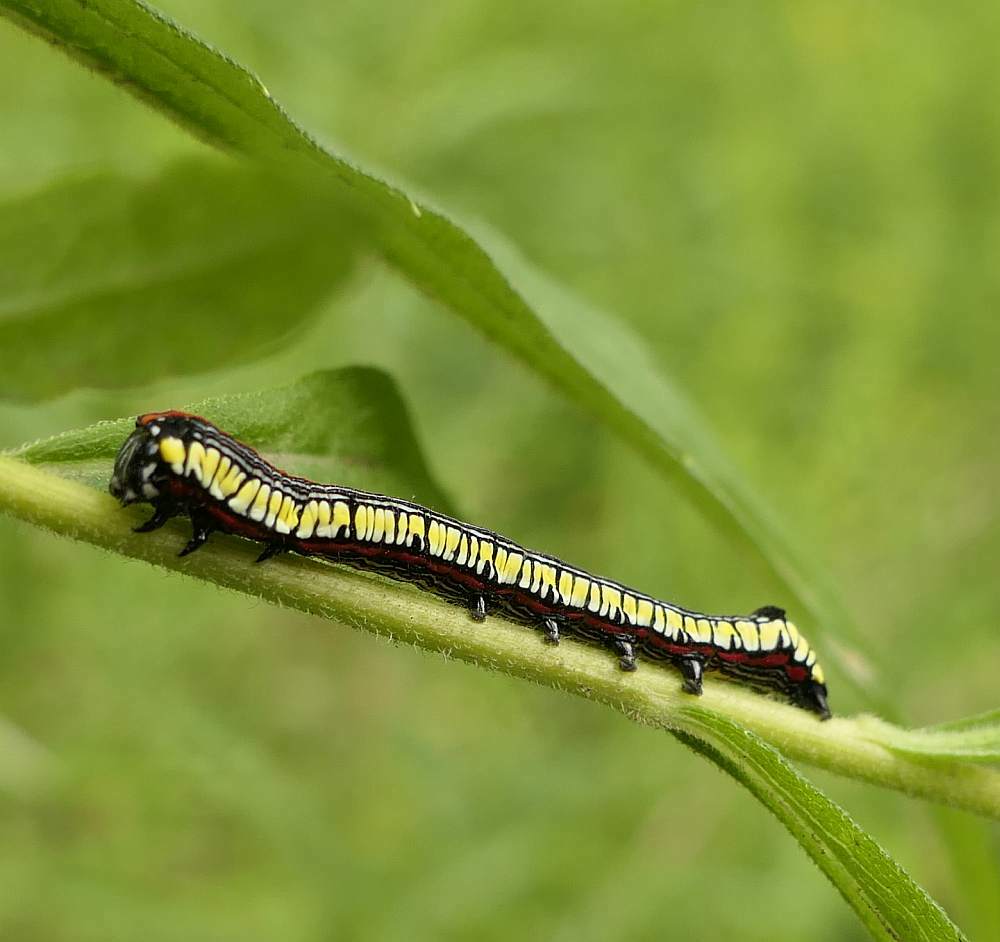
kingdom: Animalia
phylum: Arthropoda
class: Insecta
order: Lepidoptera
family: Noctuidae
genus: Cucullia
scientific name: Cucullia convexipennis
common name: Brown-hooded owlet
